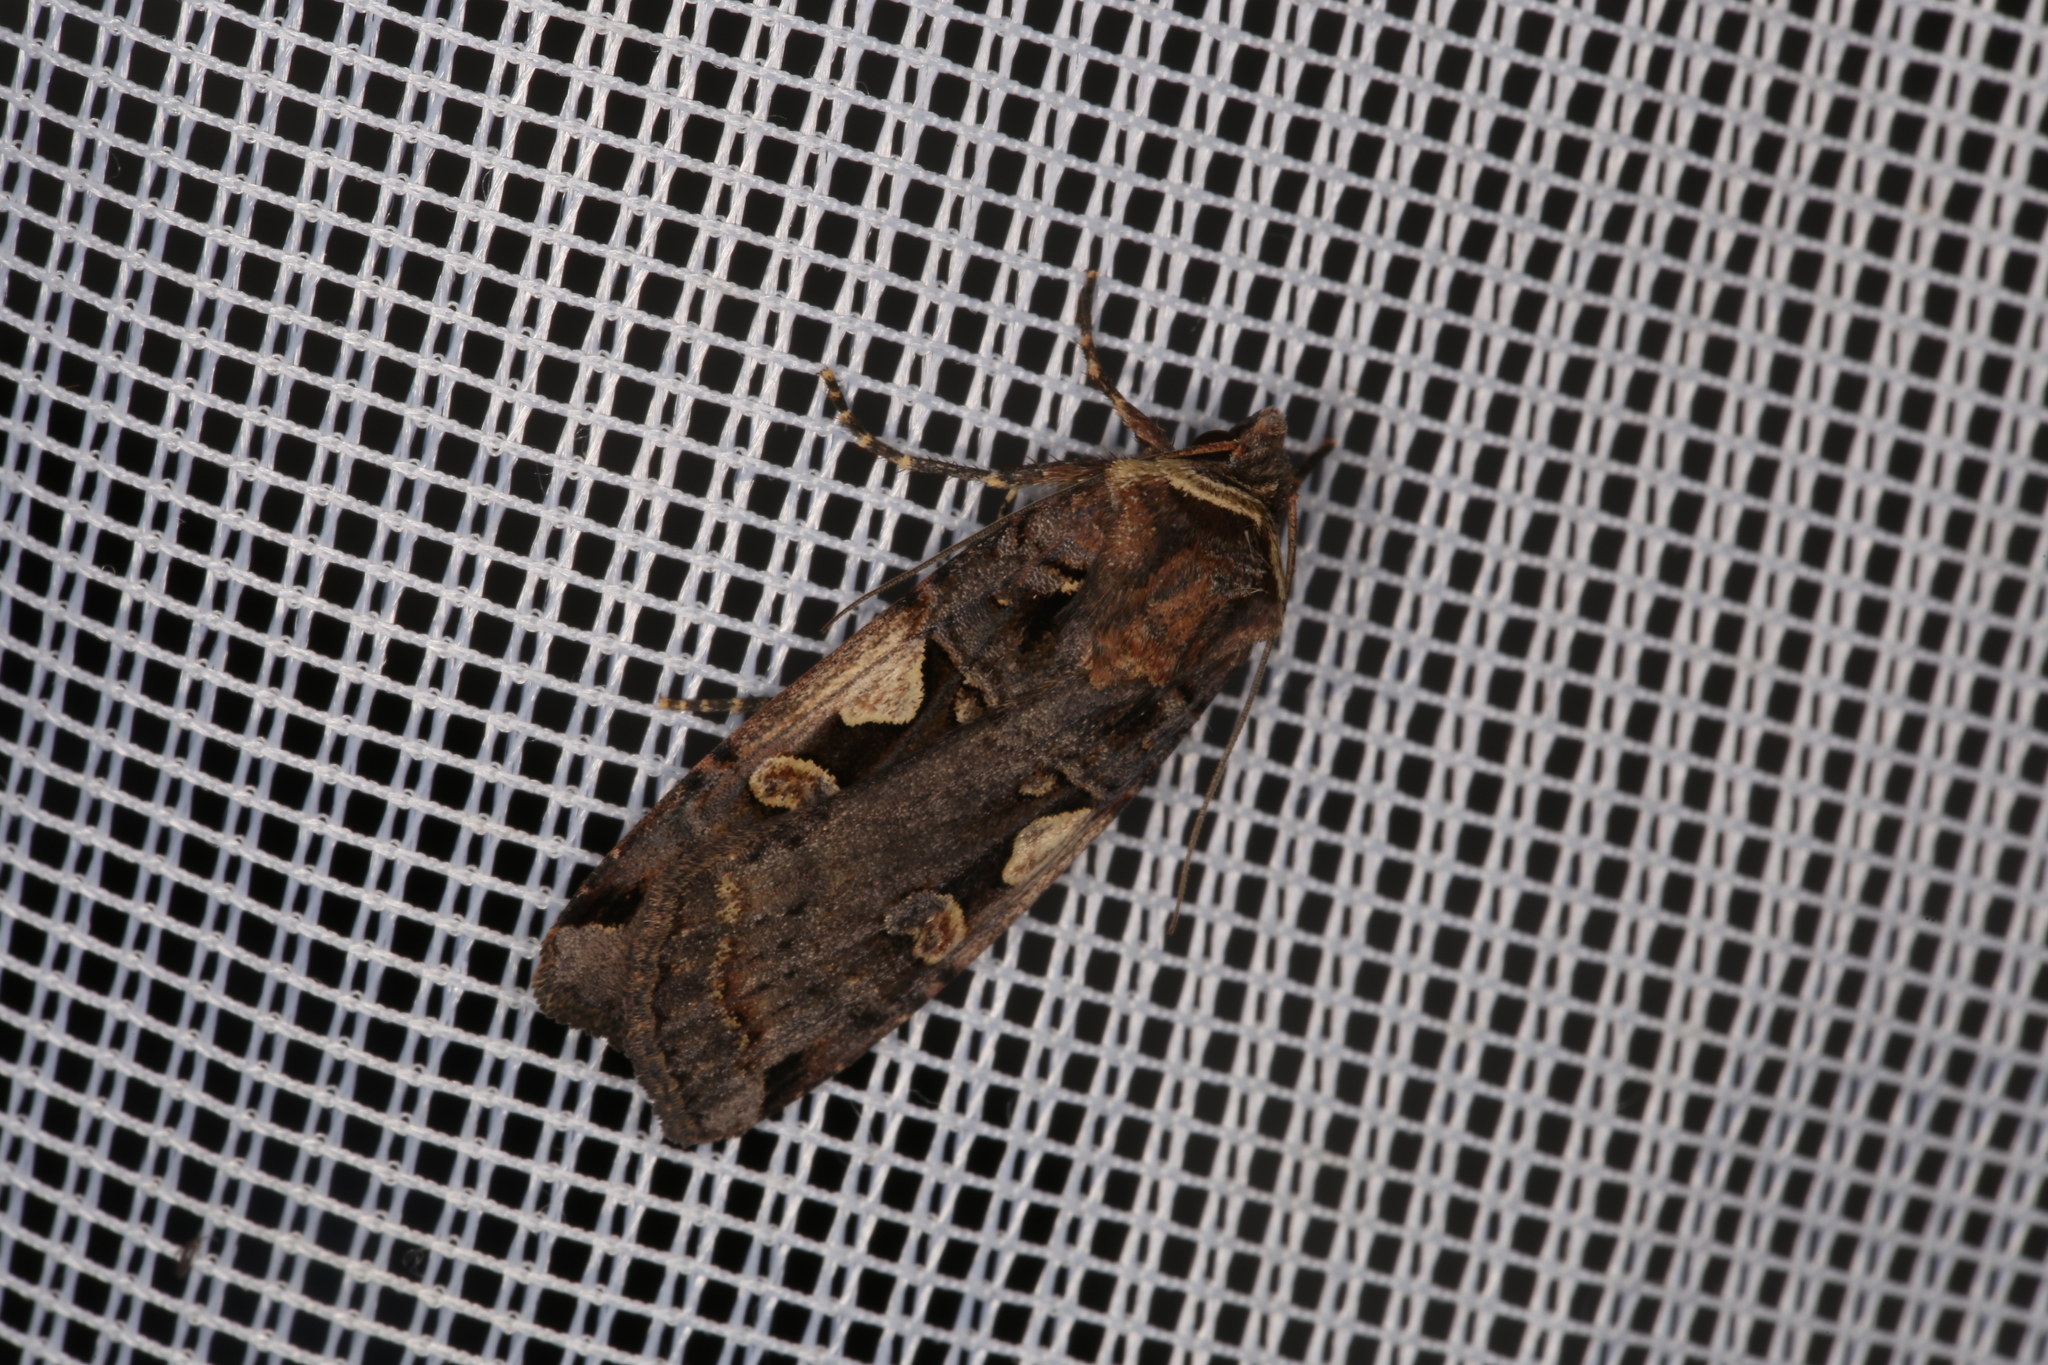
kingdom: Animalia
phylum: Arthropoda
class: Insecta
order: Lepidoptera
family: Noctuidae
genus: Xestia
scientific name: Xestia c-nigrum
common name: Setaceous hebrew character
